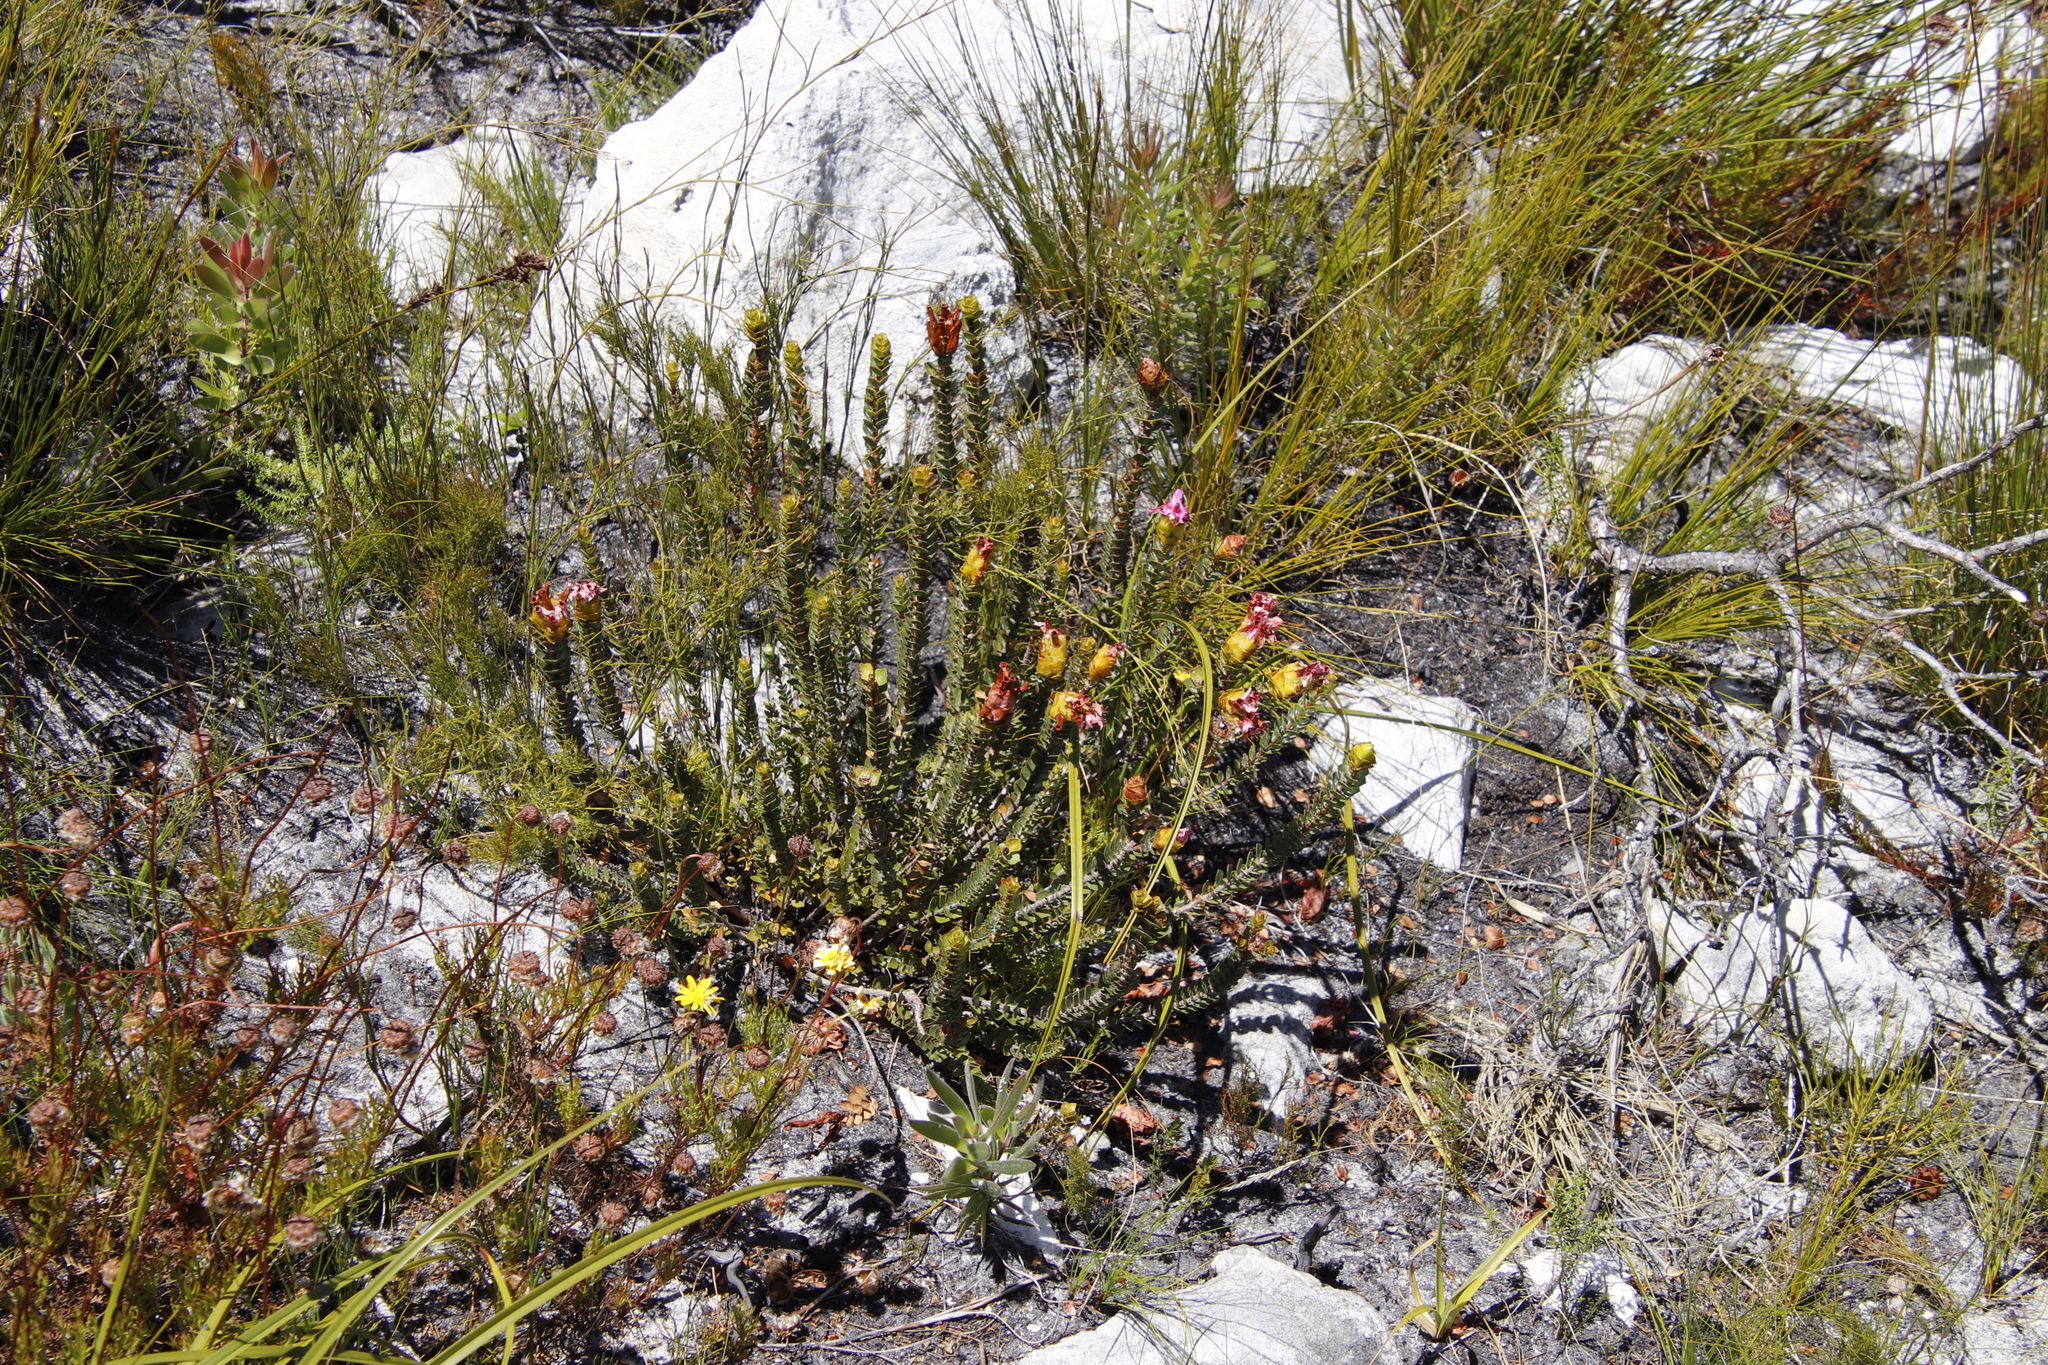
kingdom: Plantae
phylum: Tracheophyta
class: Magnoliopsida
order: Myrtales
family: Penaeaceae
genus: Saltera
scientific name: Saltera sarcocolla
